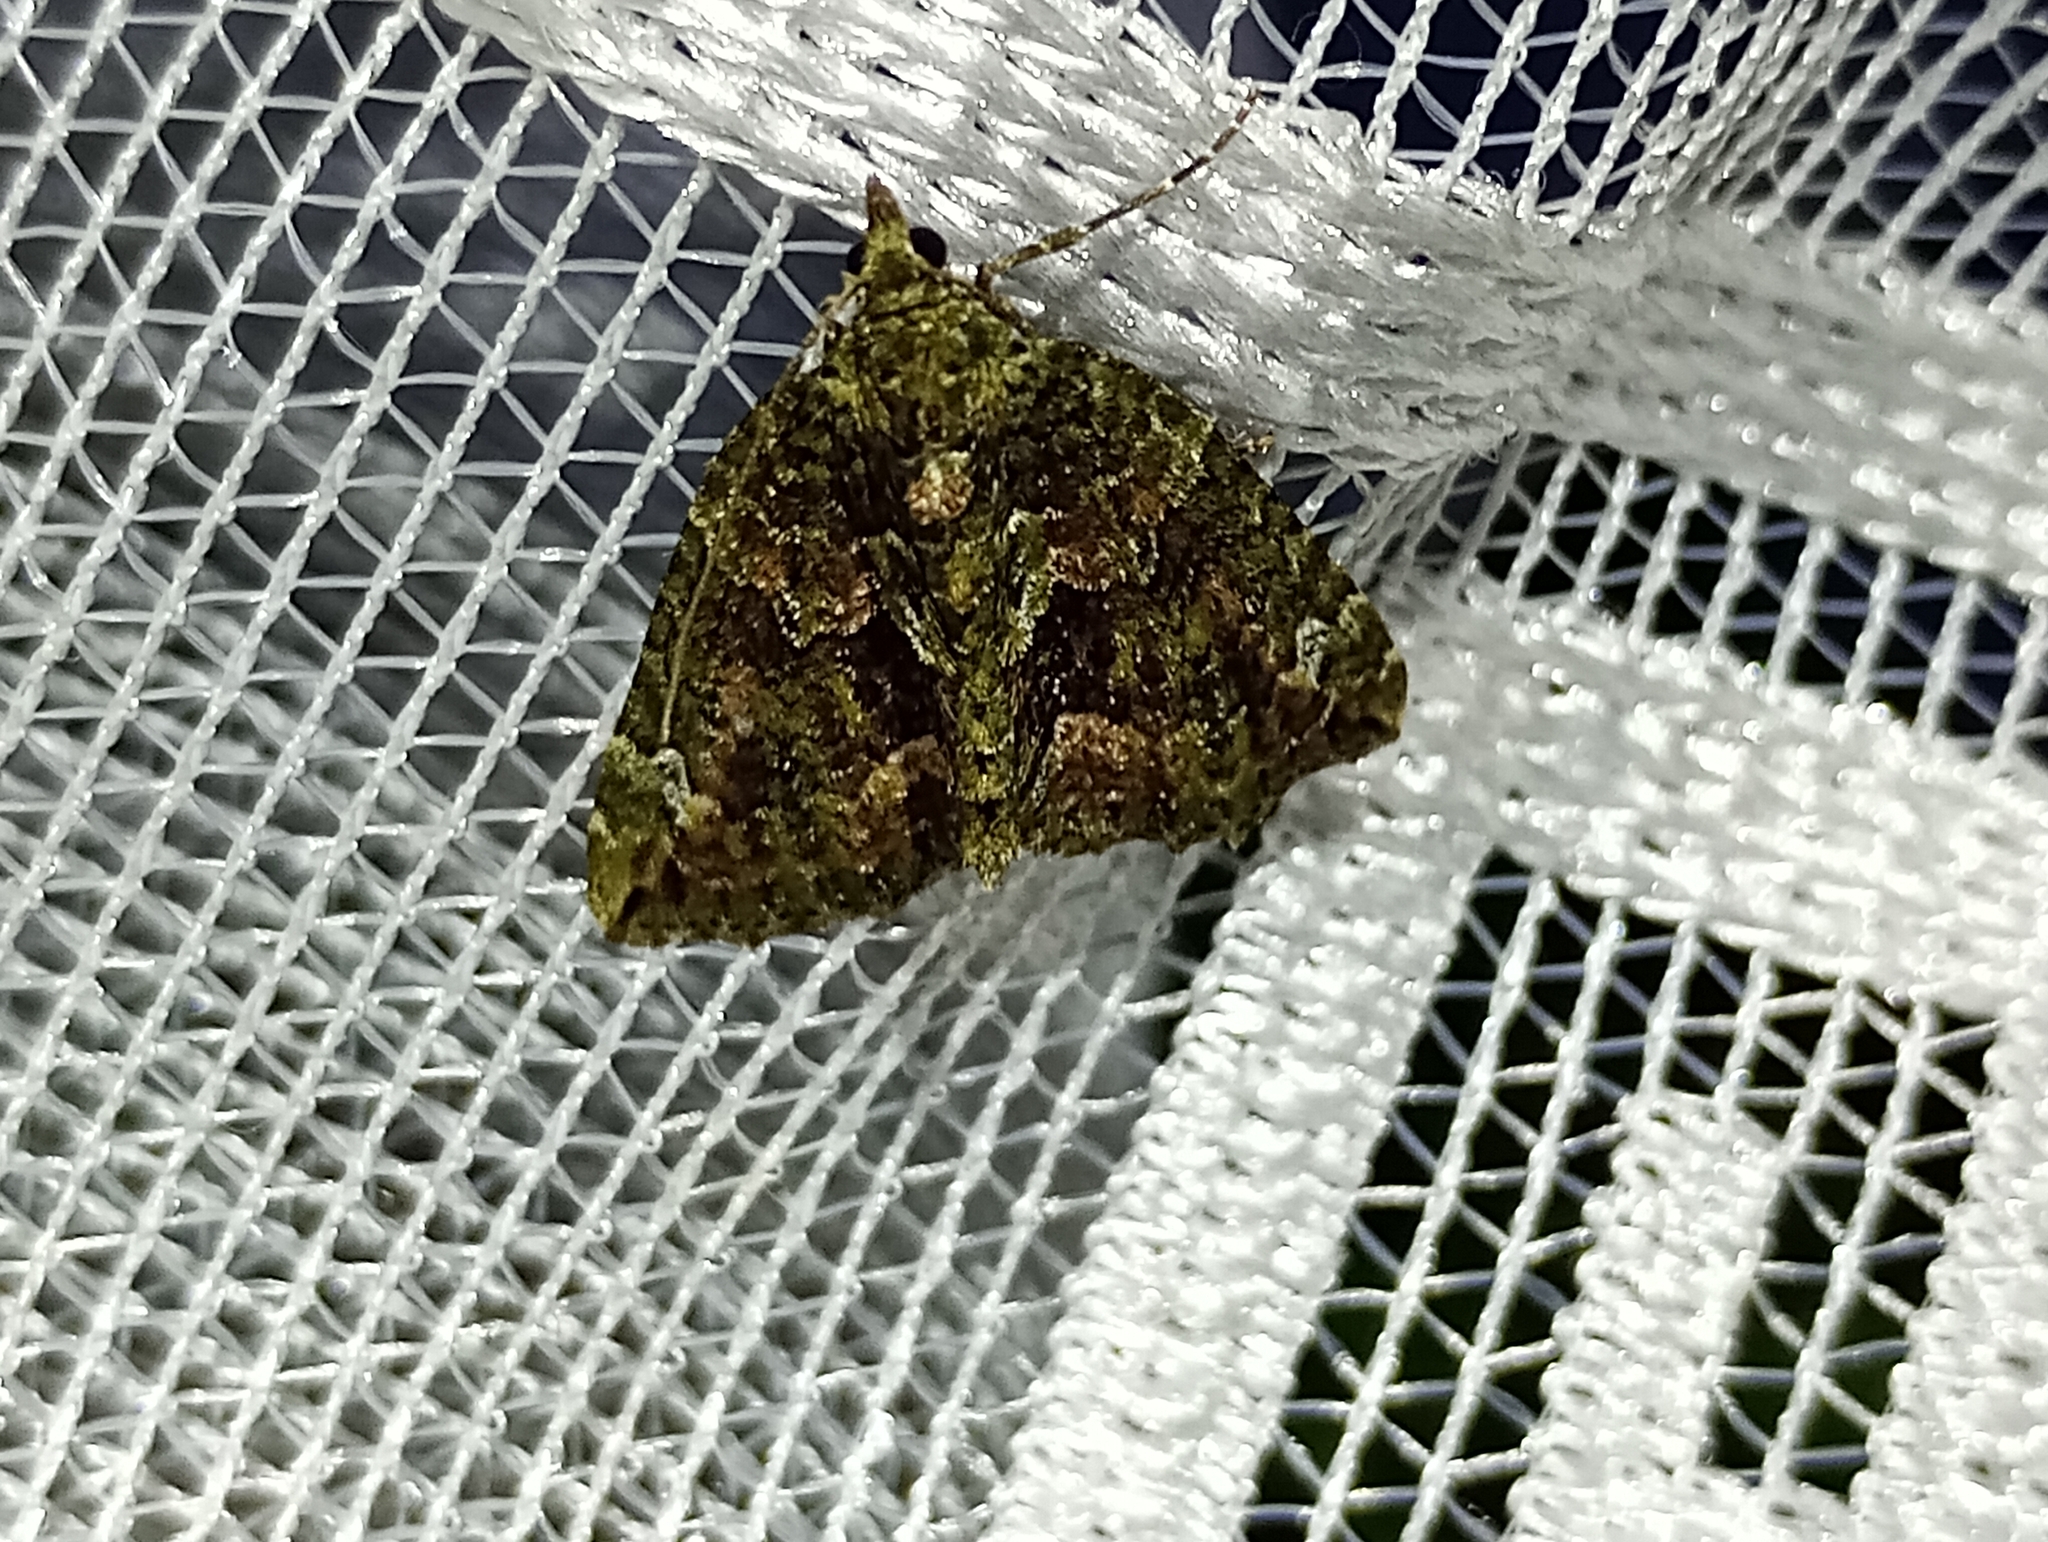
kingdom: Animalia
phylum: Arthropoda
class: Insecta
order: Lepidoptera
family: Geometridae
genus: Chloroclysta
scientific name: Chloroclysta siterata
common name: Red-green carpet
